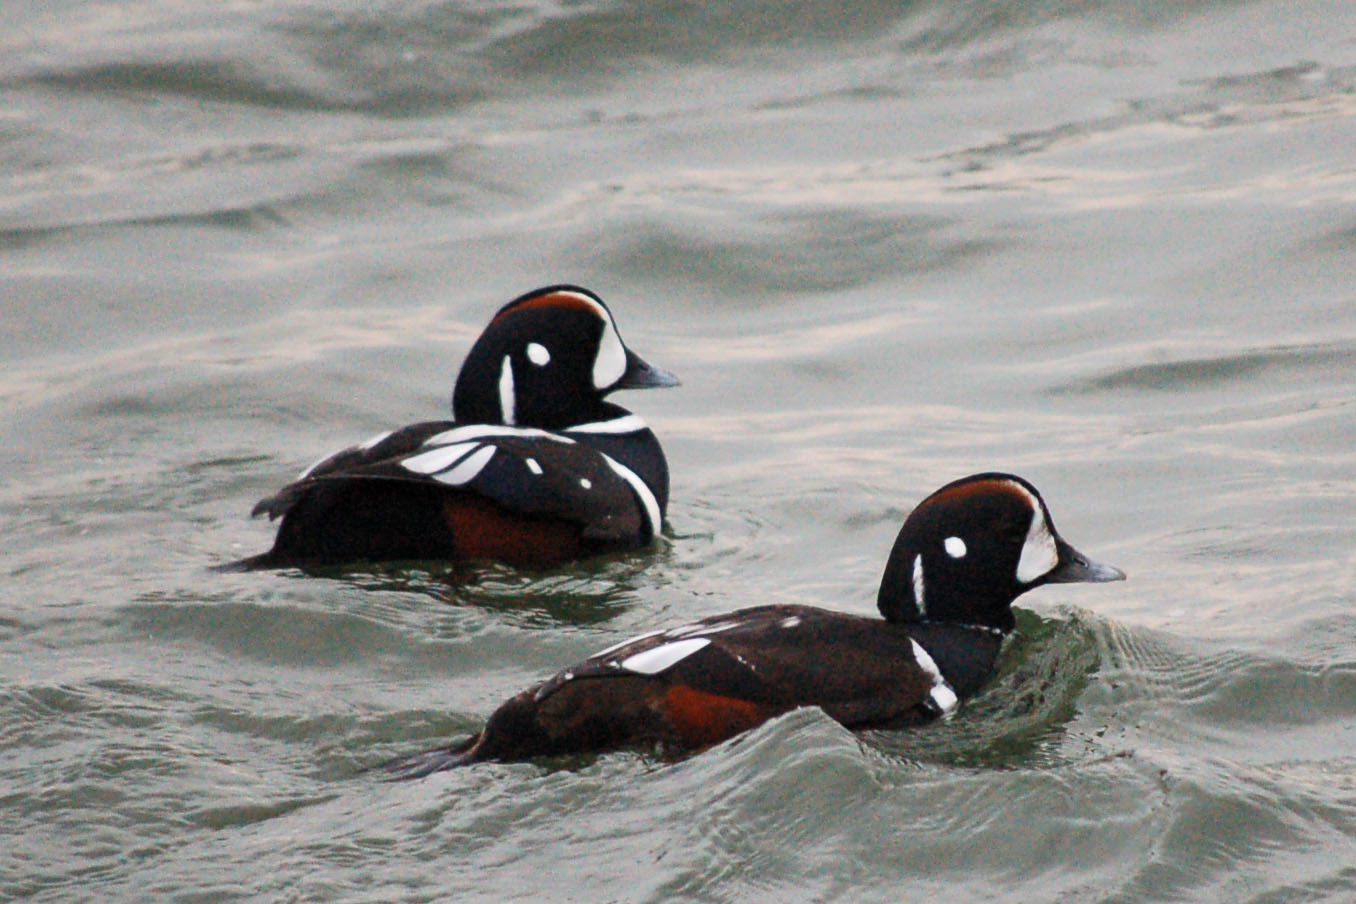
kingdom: Animalia
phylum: Chordata
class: Aves
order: Anseriformes
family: Anatidae
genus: Histrionicus
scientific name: Histrionicus histrionicus
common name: Harlequin duck
